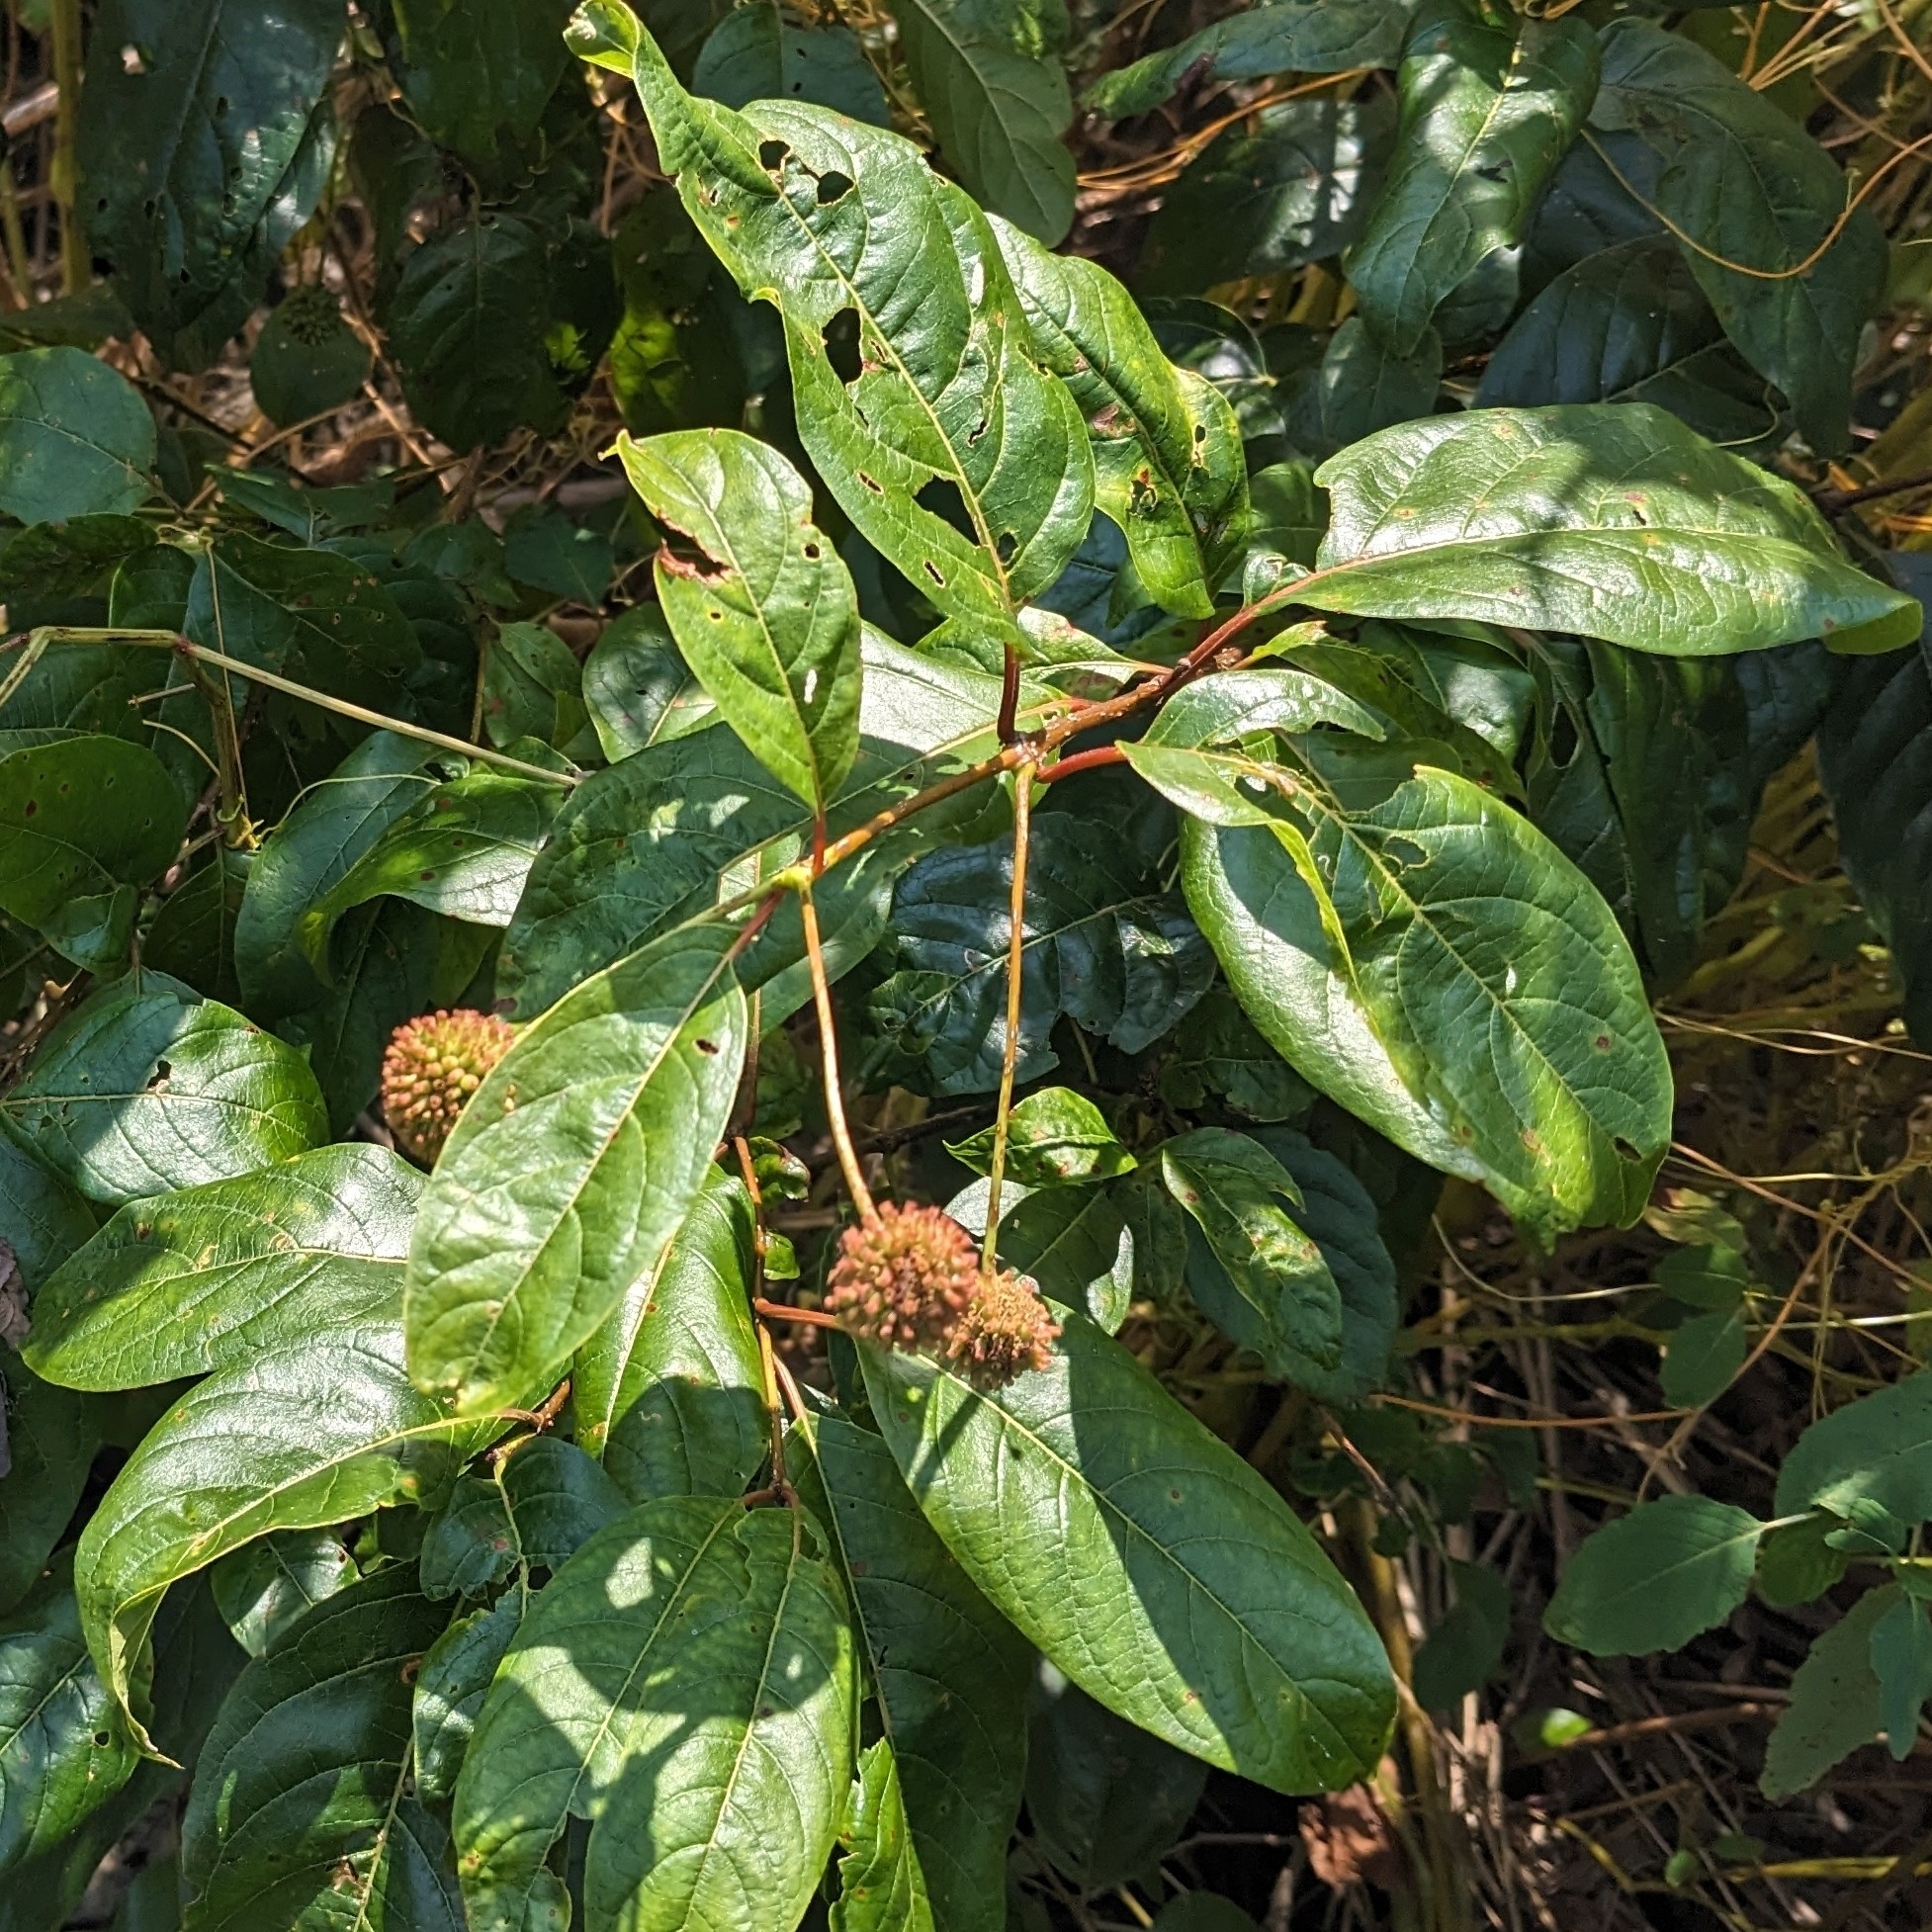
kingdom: Plantae
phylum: Tracheophyta
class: Magnoliopsida
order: Gentianales
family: Rubiaceae
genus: Cephalanthus
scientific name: Cephalanthus occidentalis
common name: Button-willow
